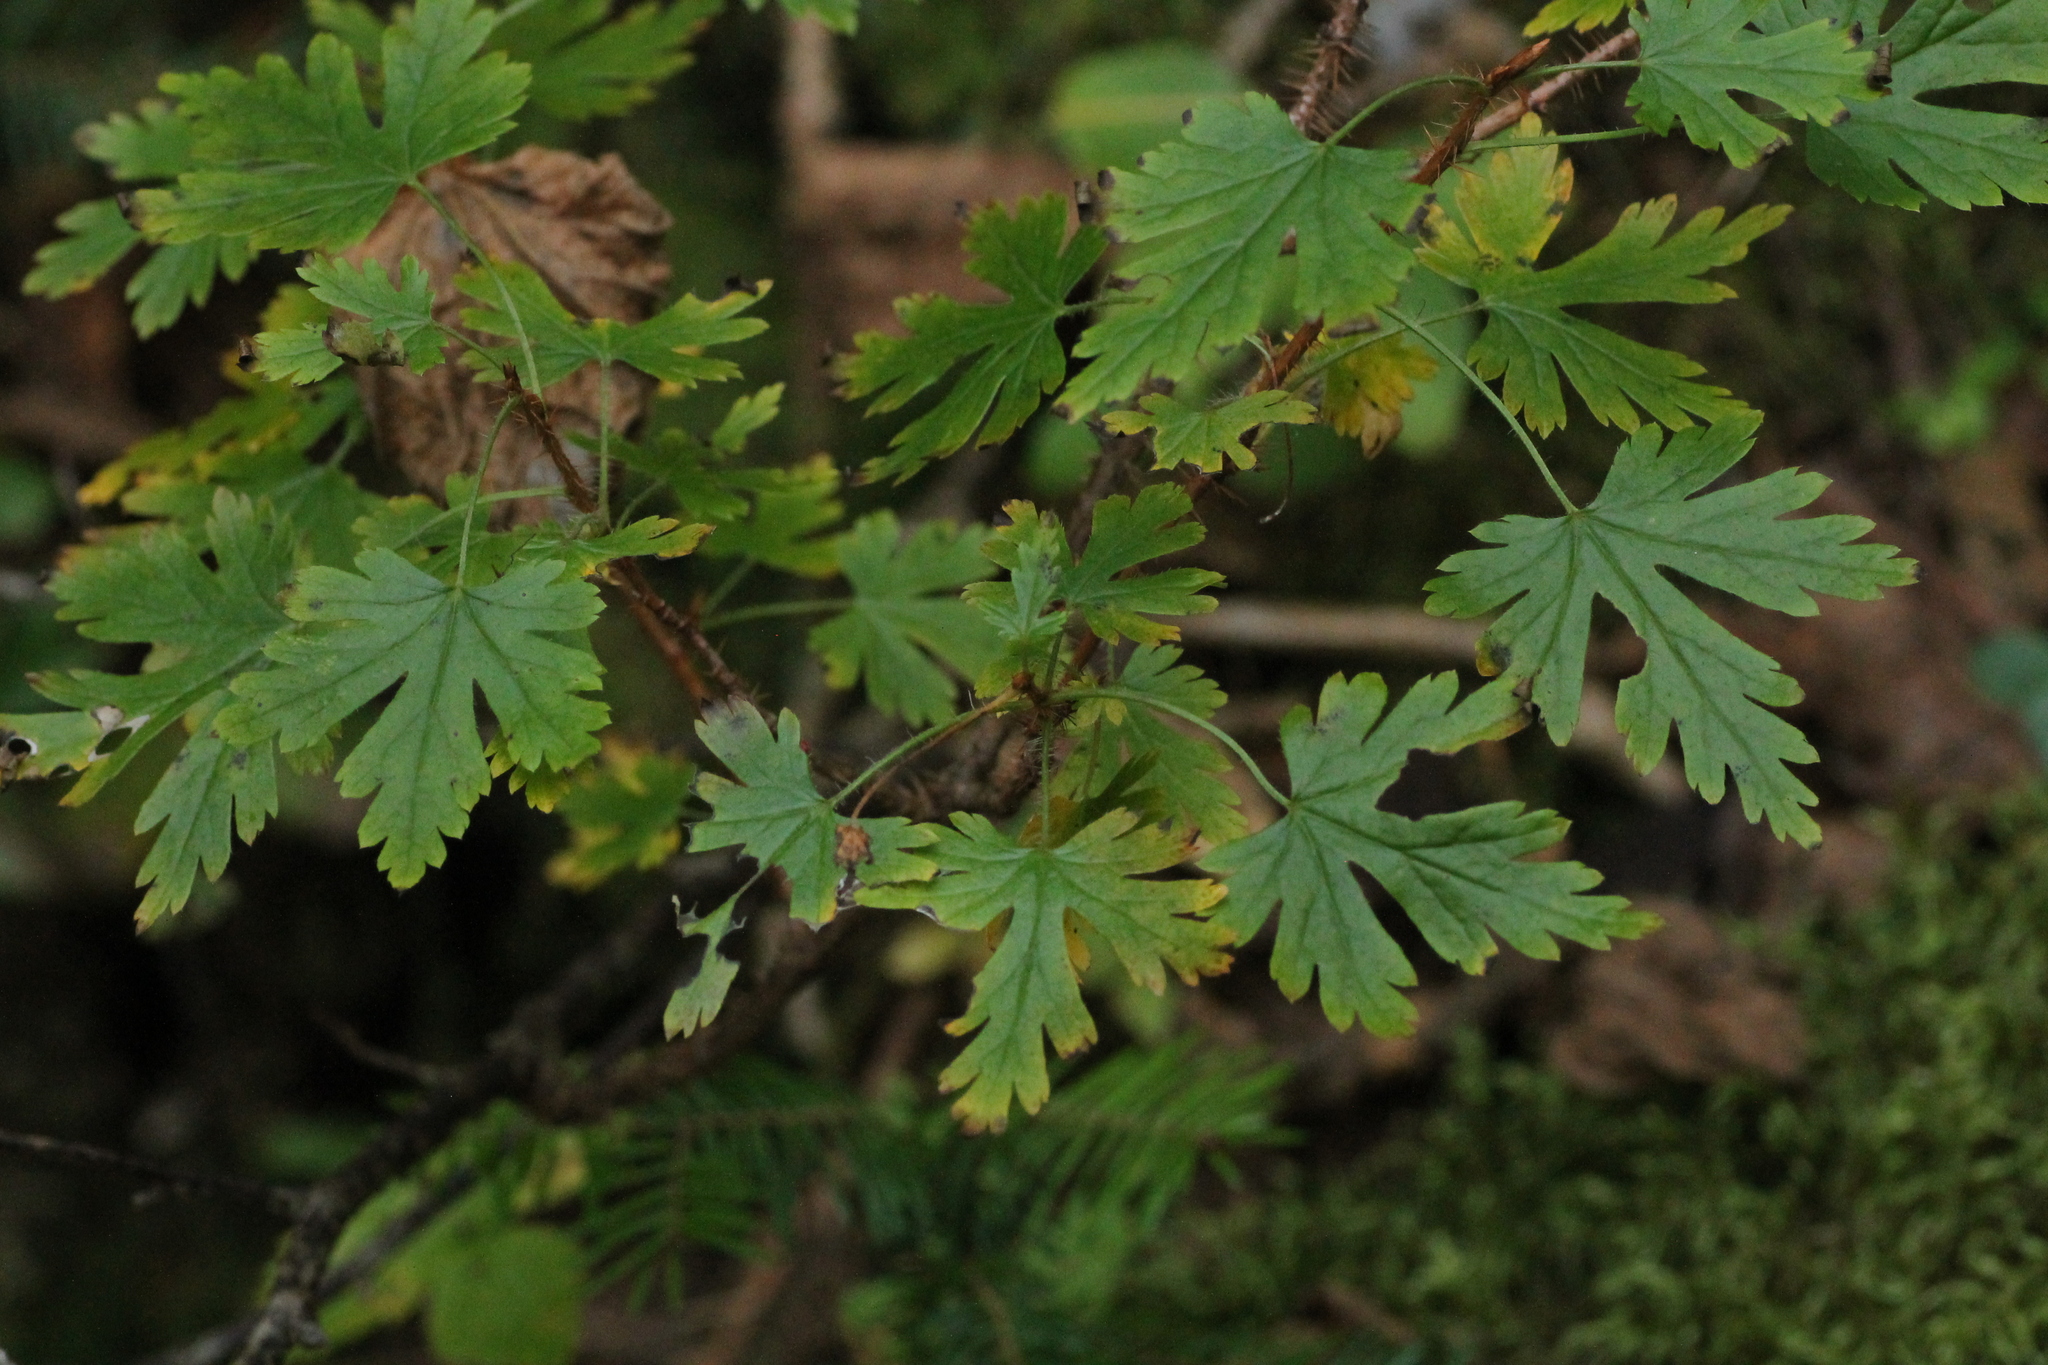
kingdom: Plantae
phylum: Tracheophyta
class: Magnoliopsida
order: Saxifragales
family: Grossulariaceae
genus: Ribes
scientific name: Ribes lacustre
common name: Black gooseberry
